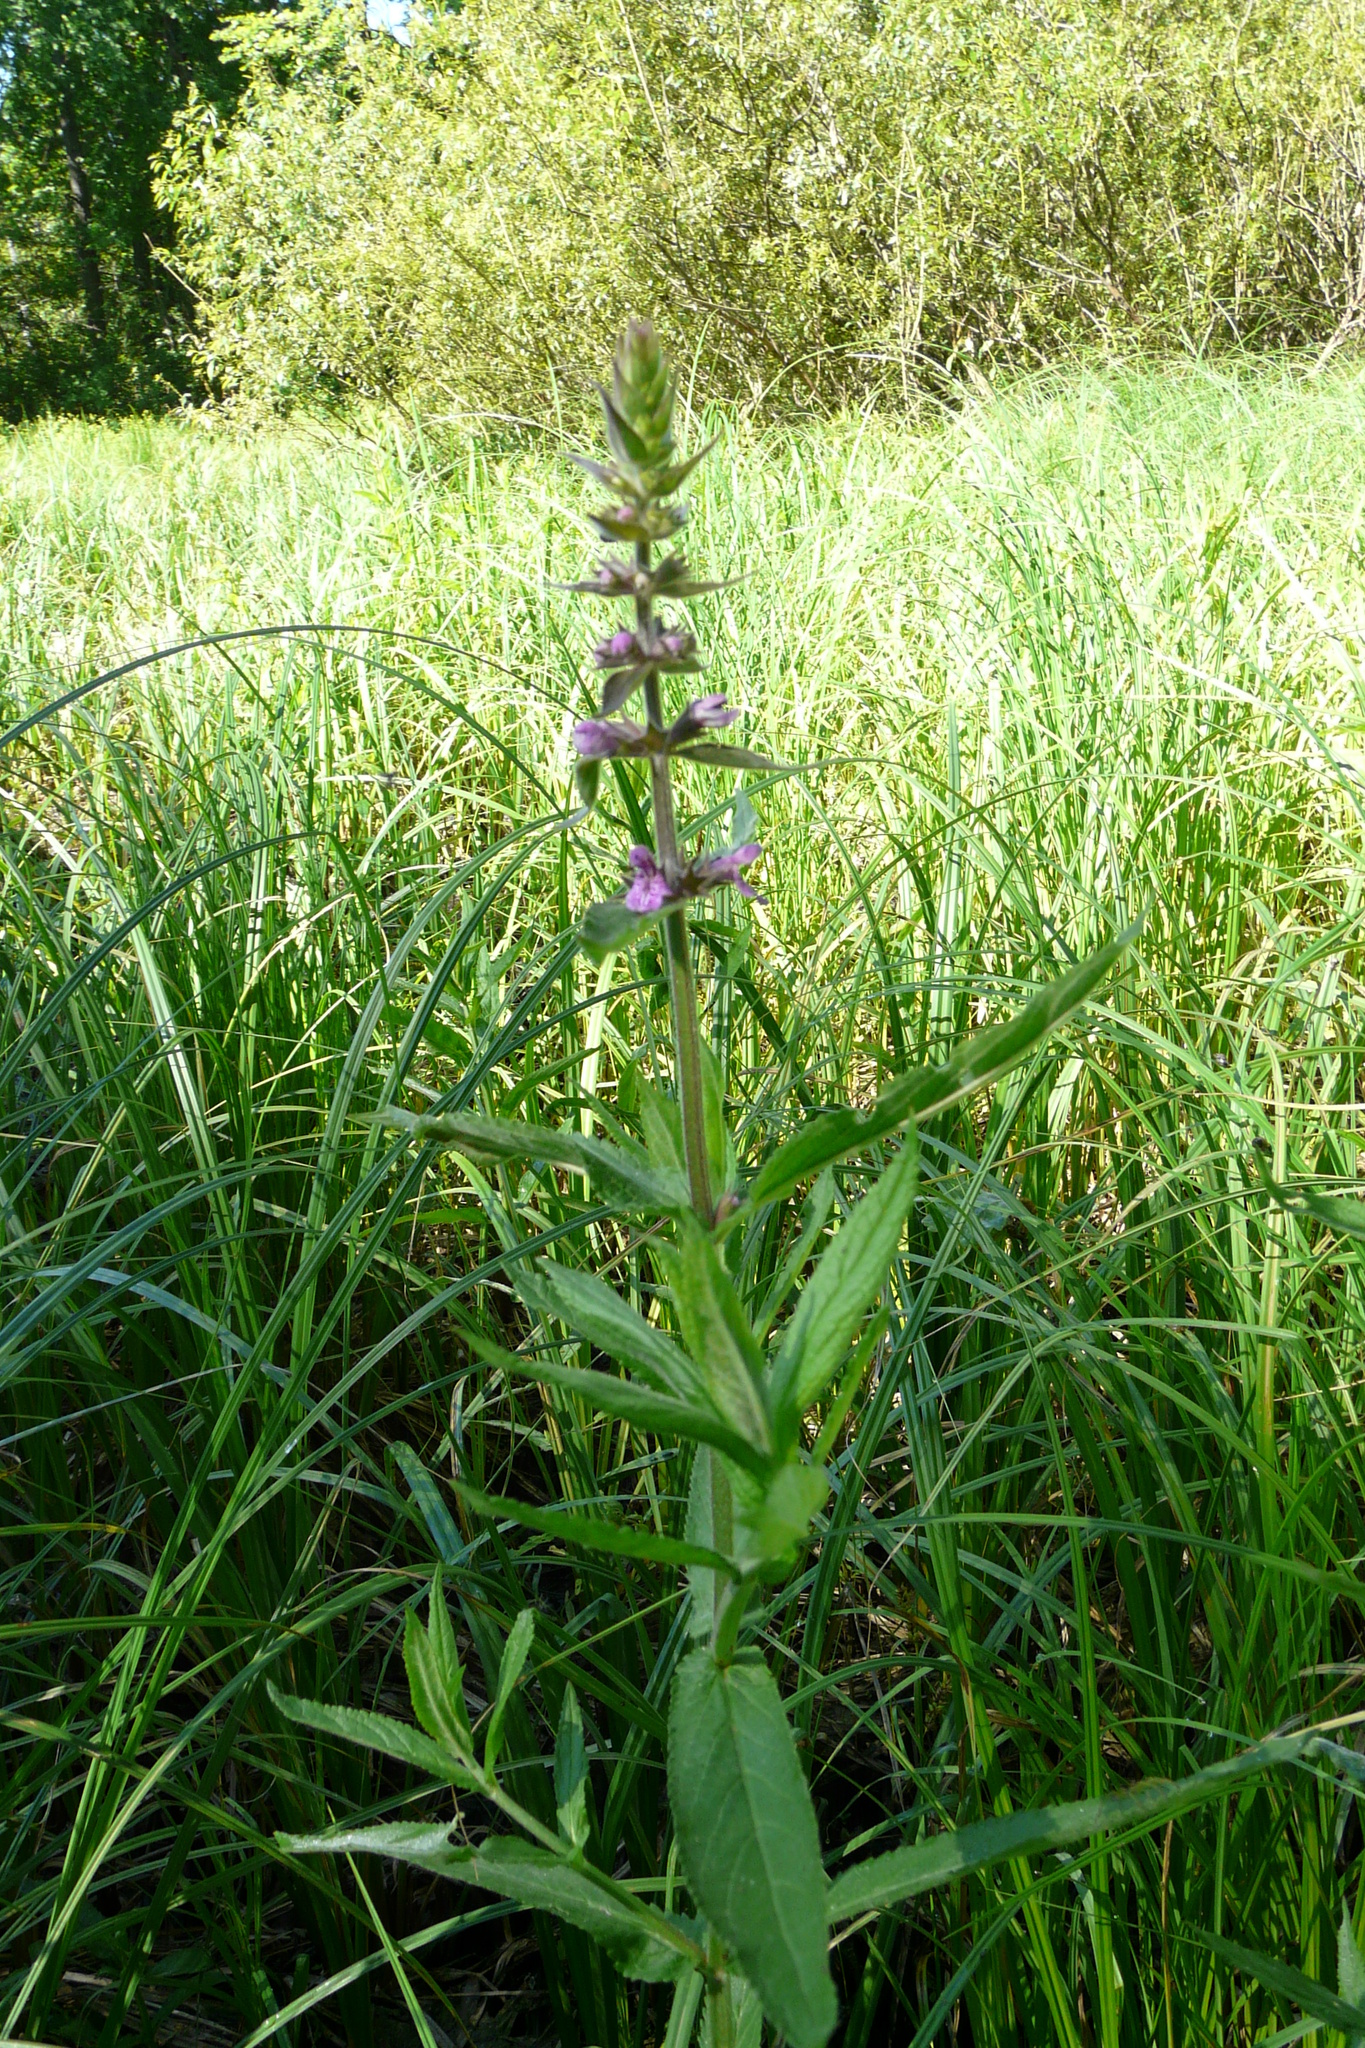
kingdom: Plantae
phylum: Tracheophyta
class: Magnoliopsida
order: Lamiales
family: Lamiaceae
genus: Stachys
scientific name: Stachys palustris
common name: Marsh woundwort
